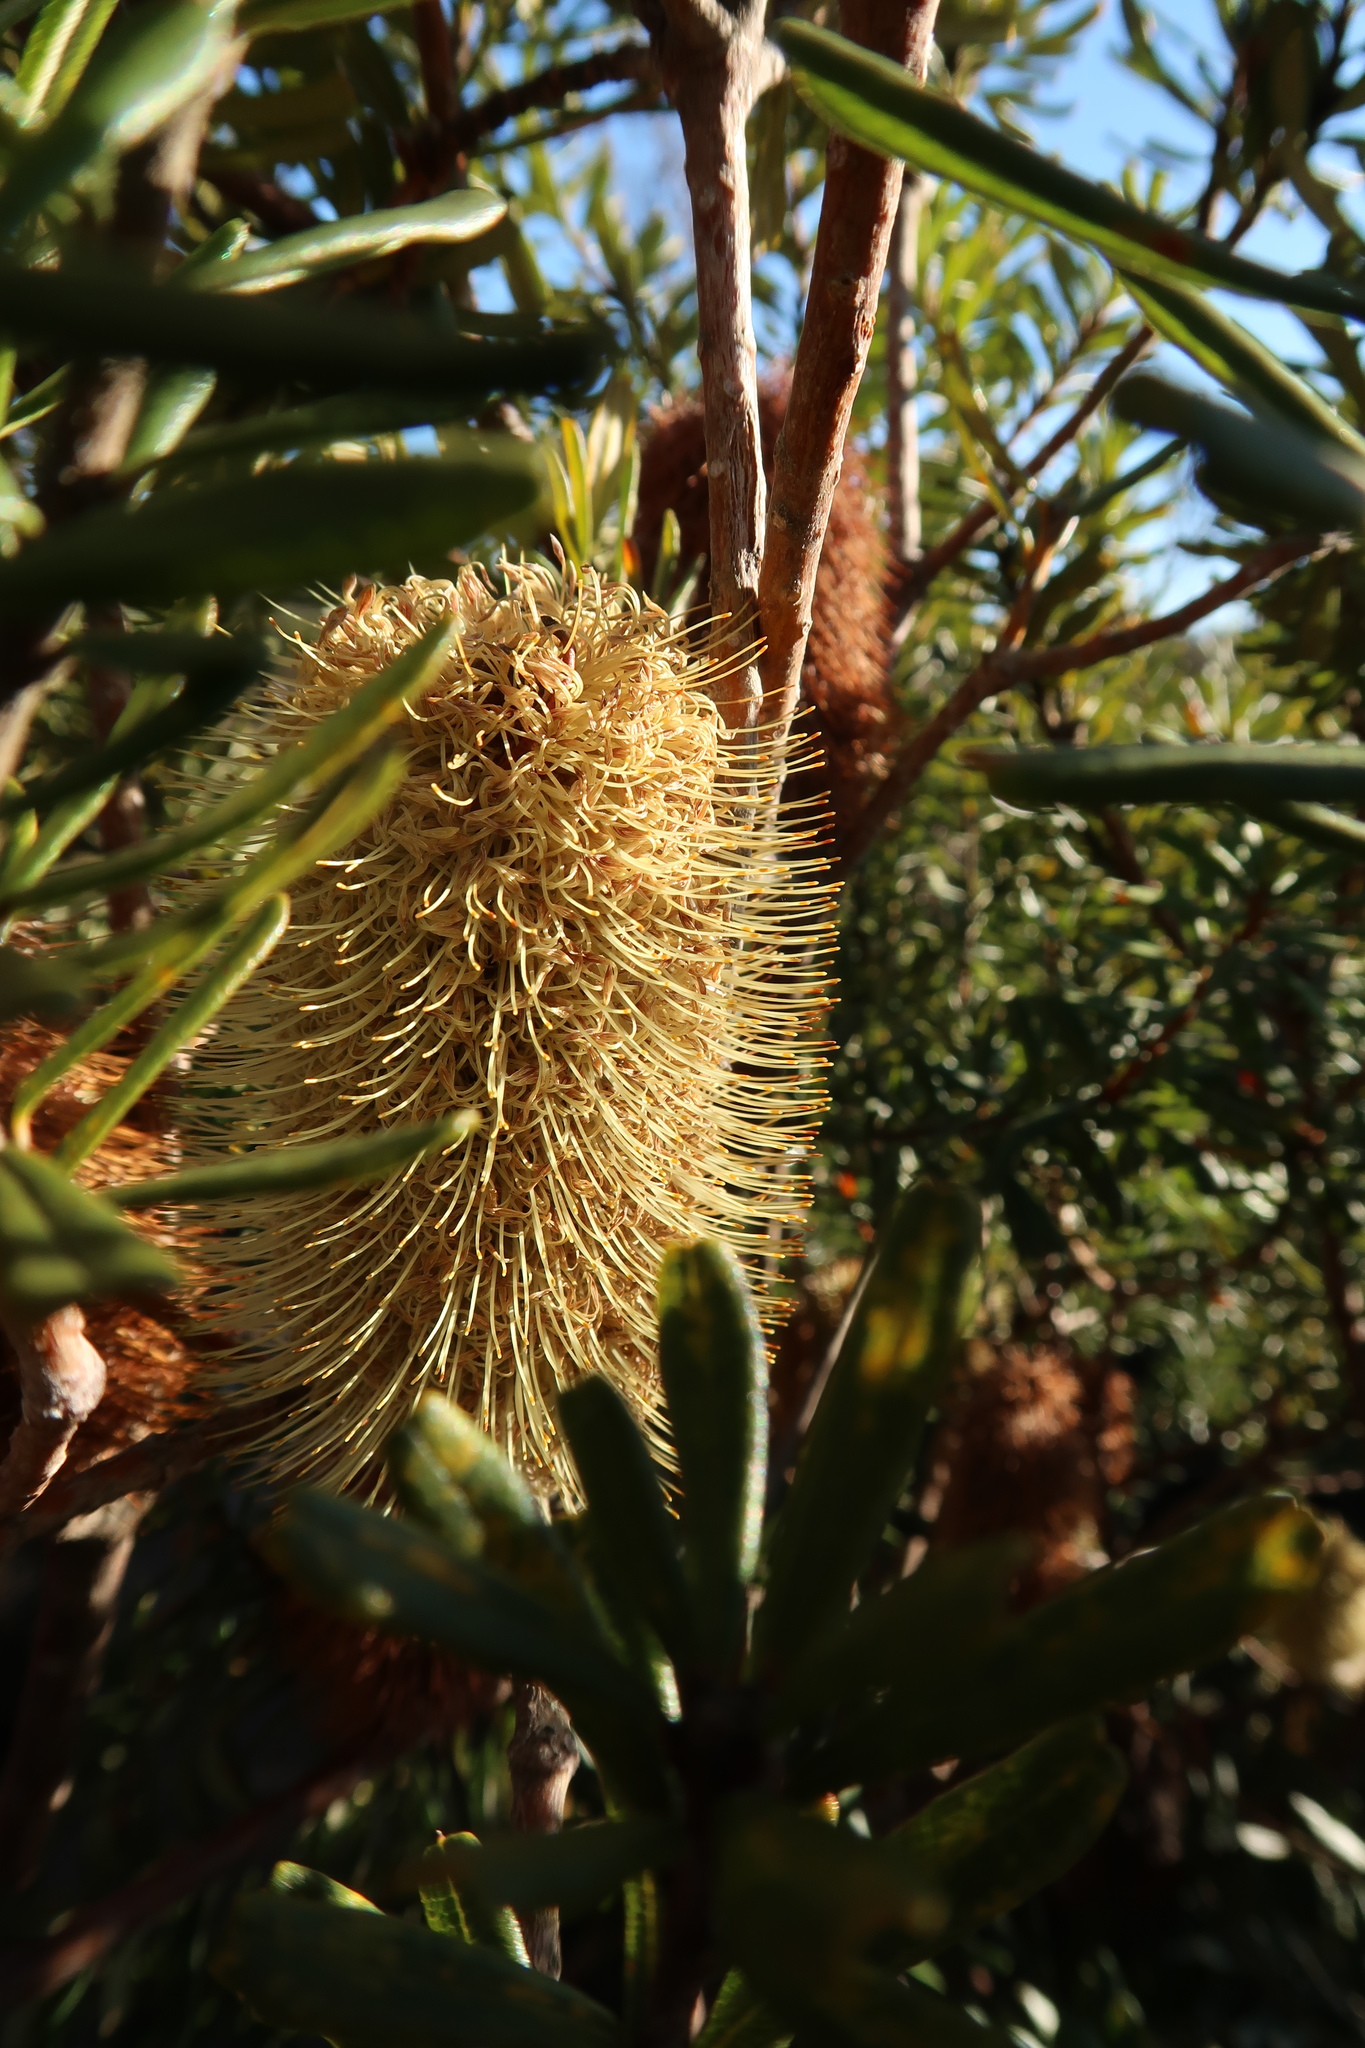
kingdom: Plantae
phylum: Tracheophyta
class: Magnoliopsida
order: Proteales
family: Proteaceae
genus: Banksia
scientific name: Banksia marginata
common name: Silver banksia
